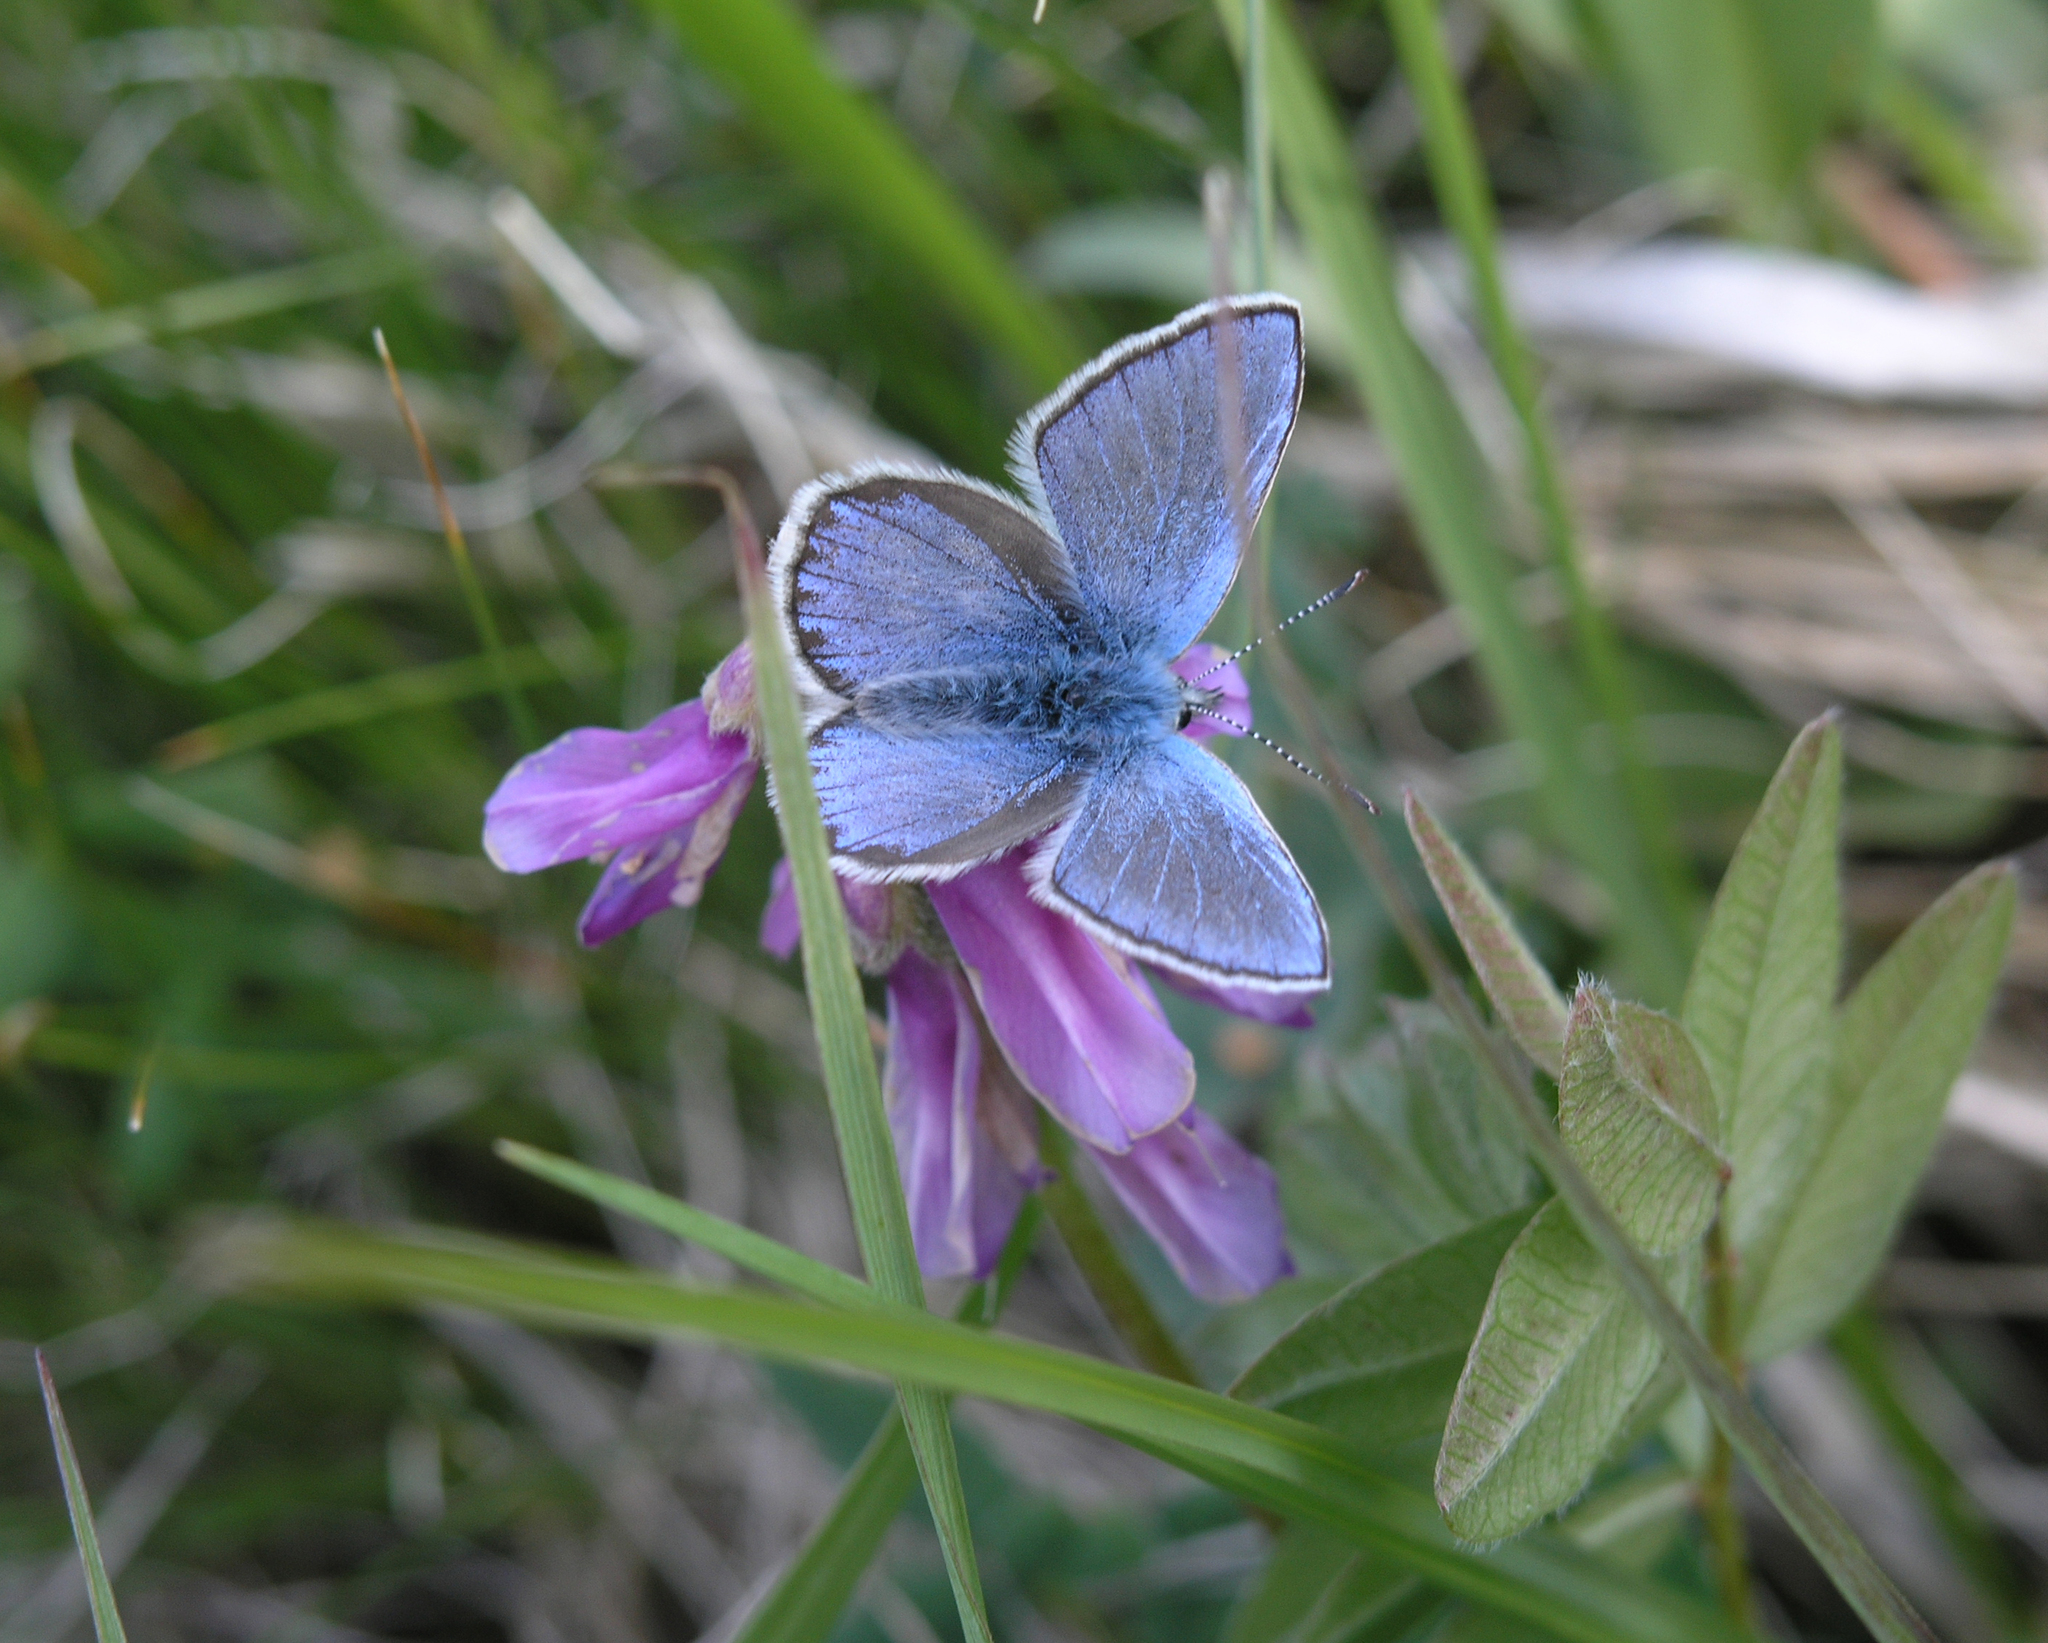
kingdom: Animalia
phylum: Arthropoda
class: Insecta
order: Lepidoptera
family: Lycaenidae
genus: Albulina
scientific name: Albulina orbitulus
